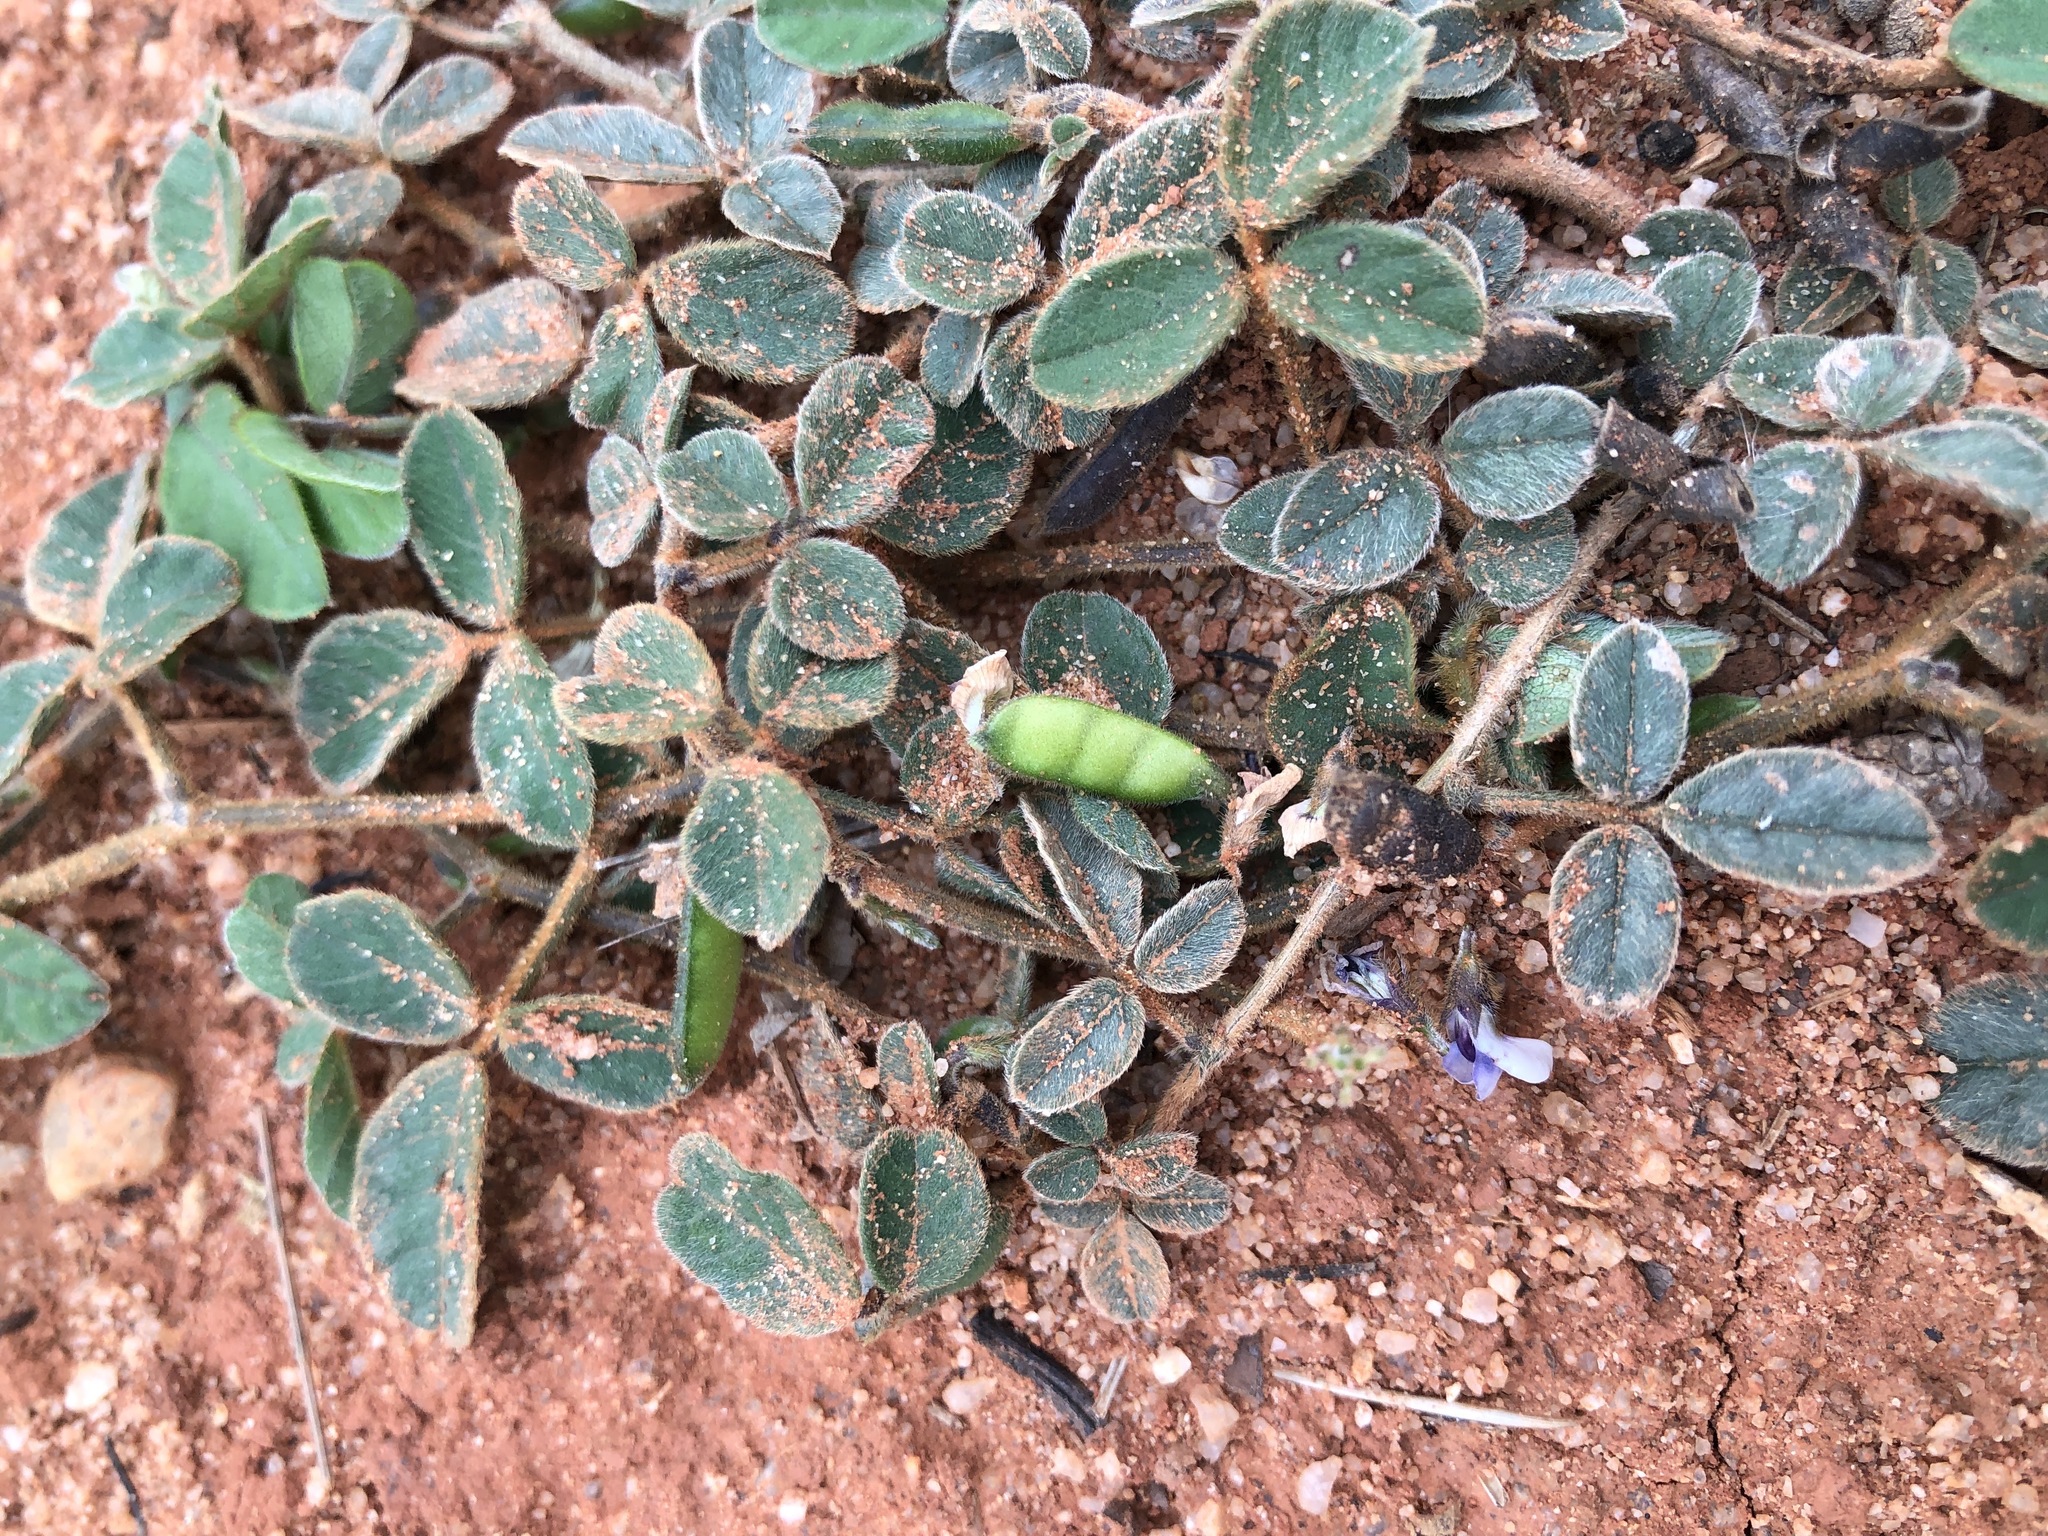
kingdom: Plantae
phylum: Tracheophyta
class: Magnoliopsida
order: Fabales
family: Fabaceae
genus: Glycine
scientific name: Glycine tomentella
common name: Hairy glycine
